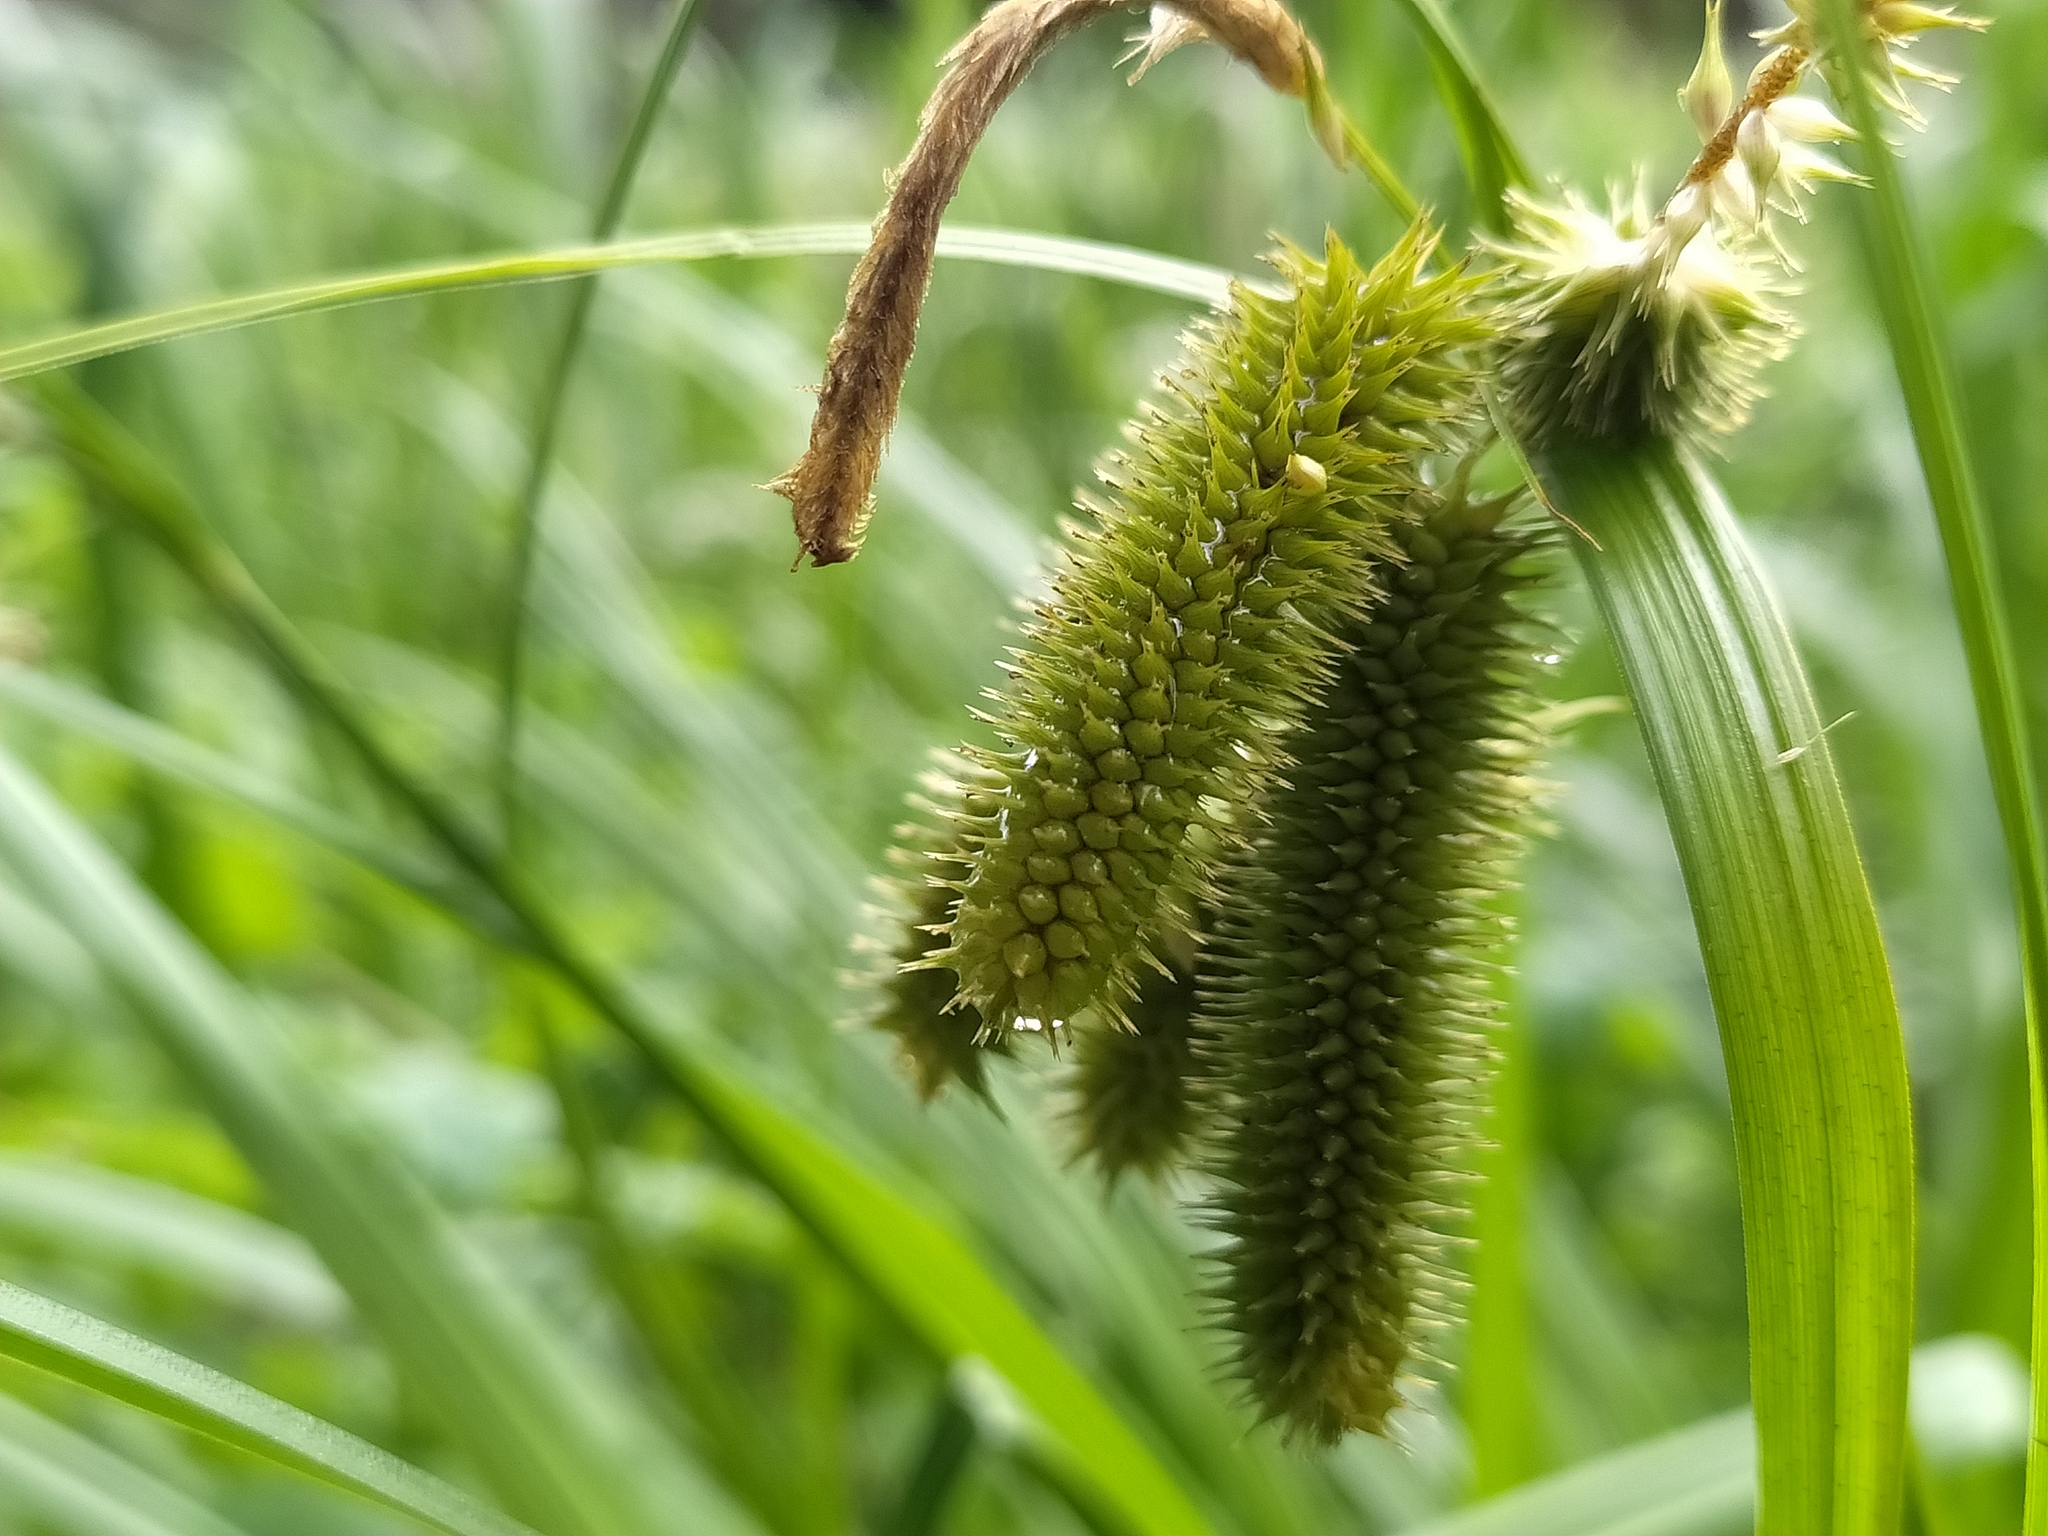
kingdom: Plantae
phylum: Tracheophyta
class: Liliopsida
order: Poales
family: Cyperaceae
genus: Carex
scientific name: Carex pseudocyperus
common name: Cyperus sedge
